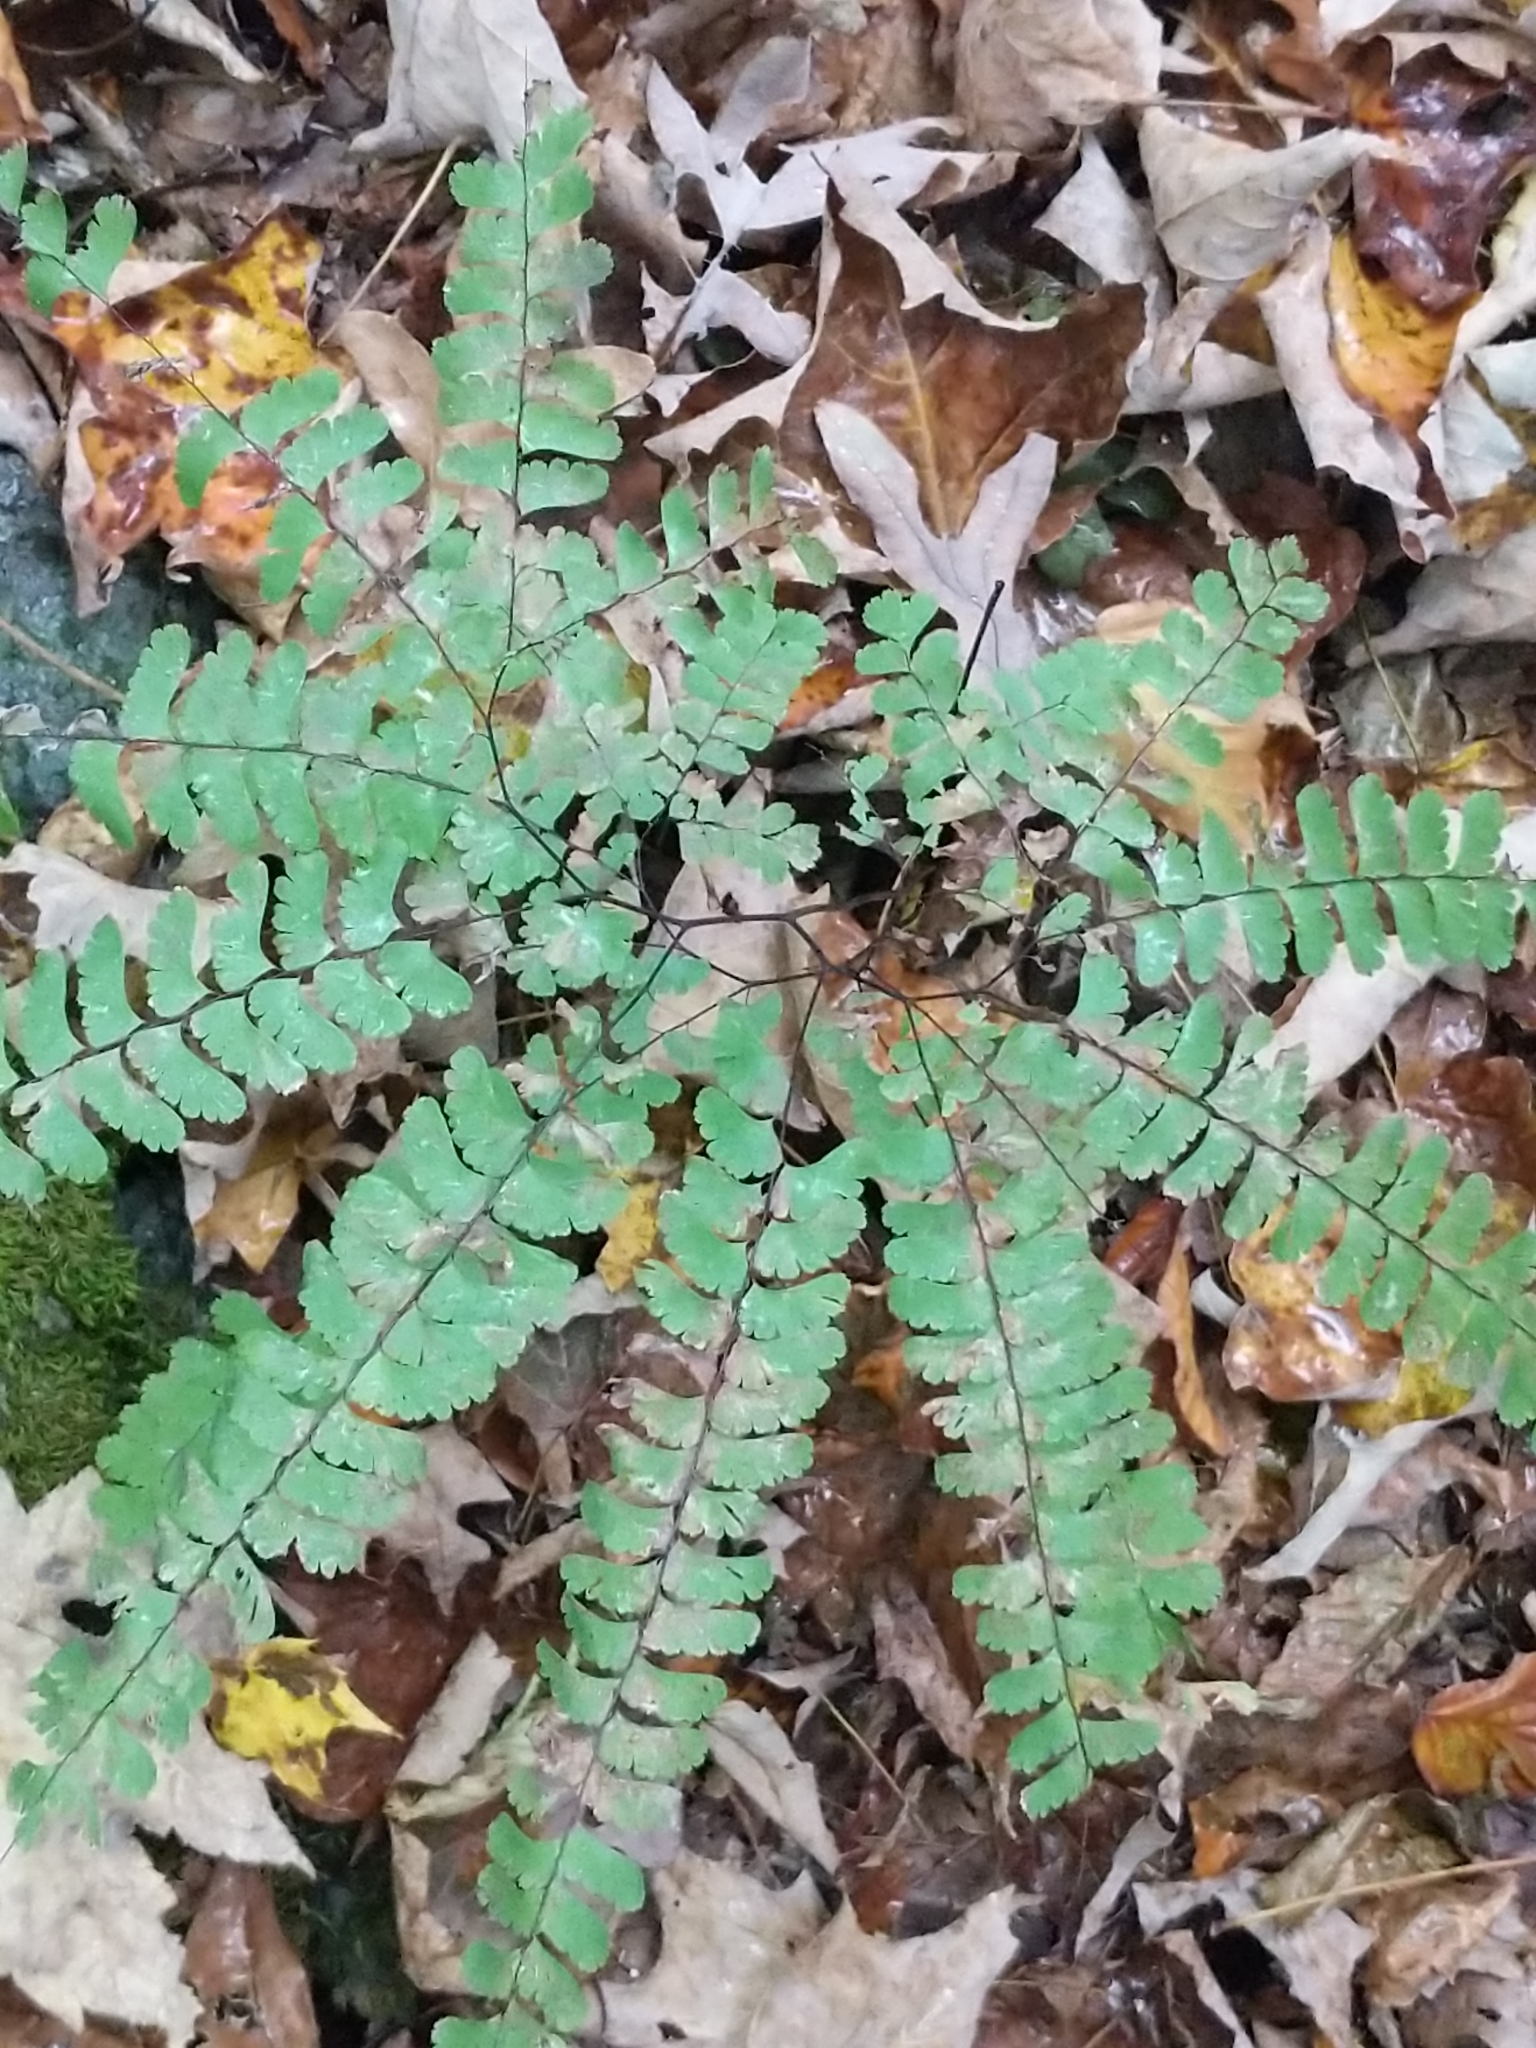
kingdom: Plantae
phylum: Tracheophyta
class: Polypodiopsida
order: Polypodiales
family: Pteridaceae
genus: Adiantum
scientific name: Adiantum pedatum
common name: Five-finger fern
